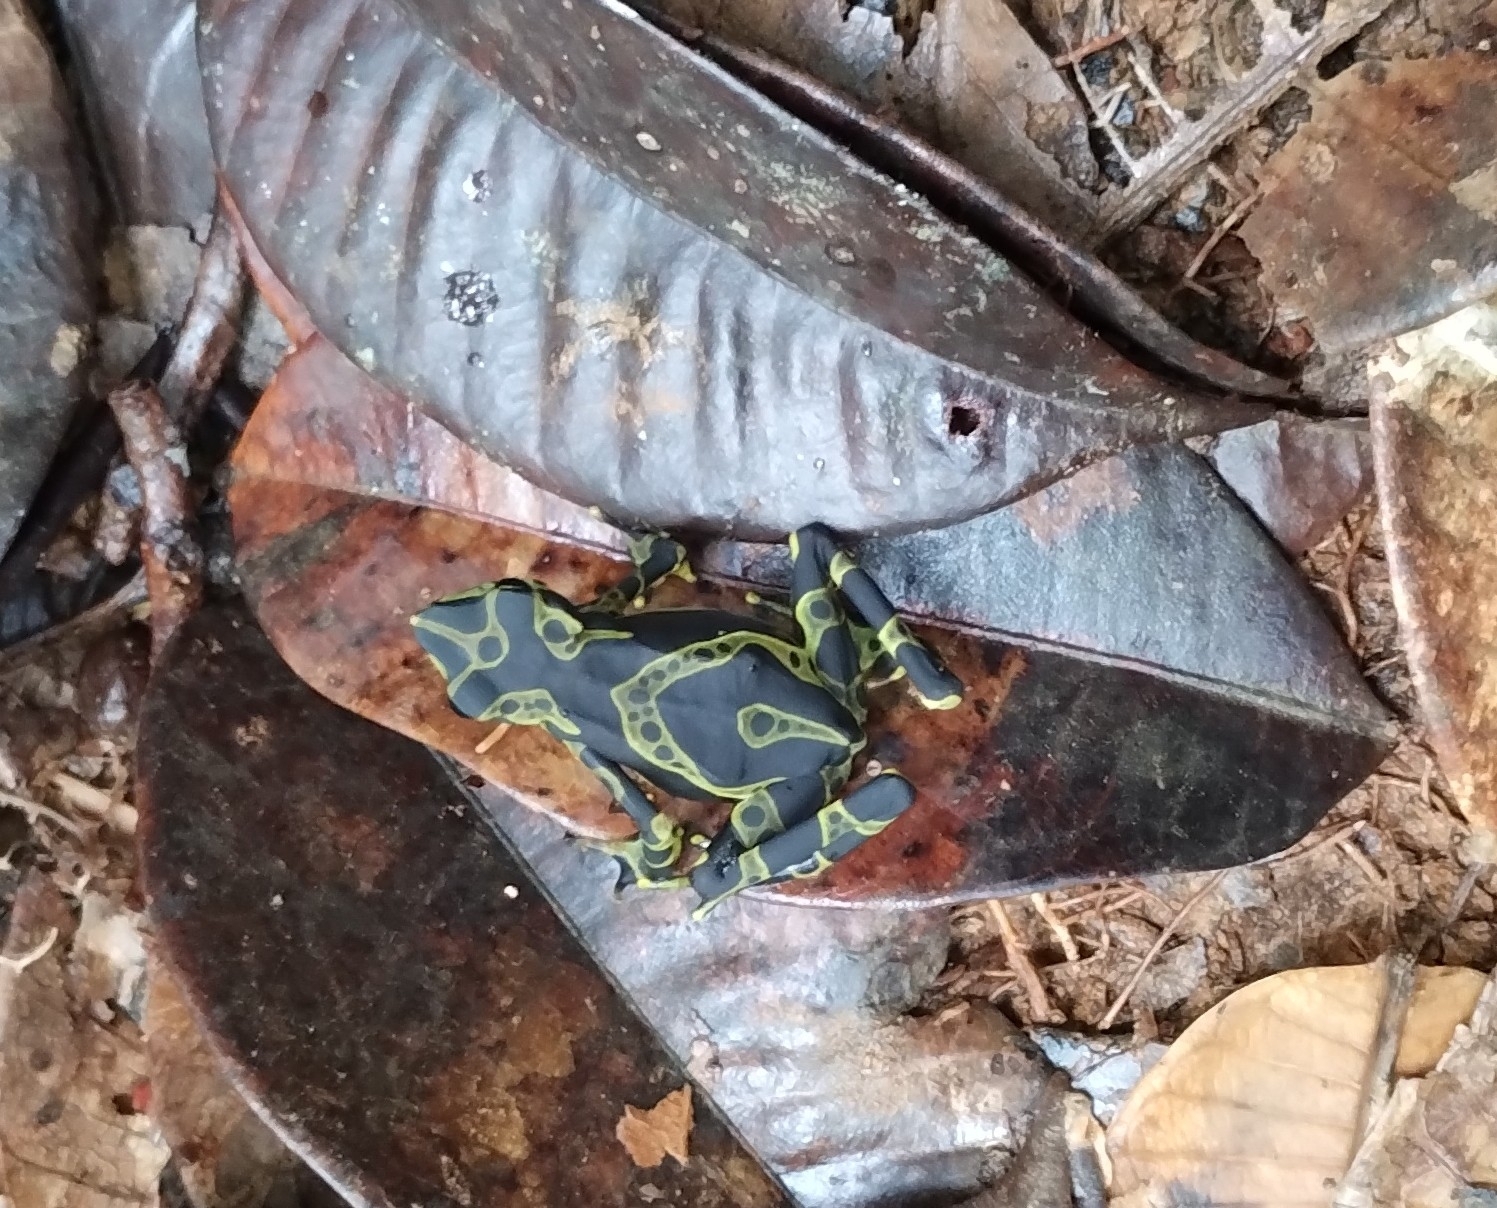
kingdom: Animalia
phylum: Chordata
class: Amphibia
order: Anura
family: Bufonidae
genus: Atelopus
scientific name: Atelopus spurrelli
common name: Condoto stubfoot toad
